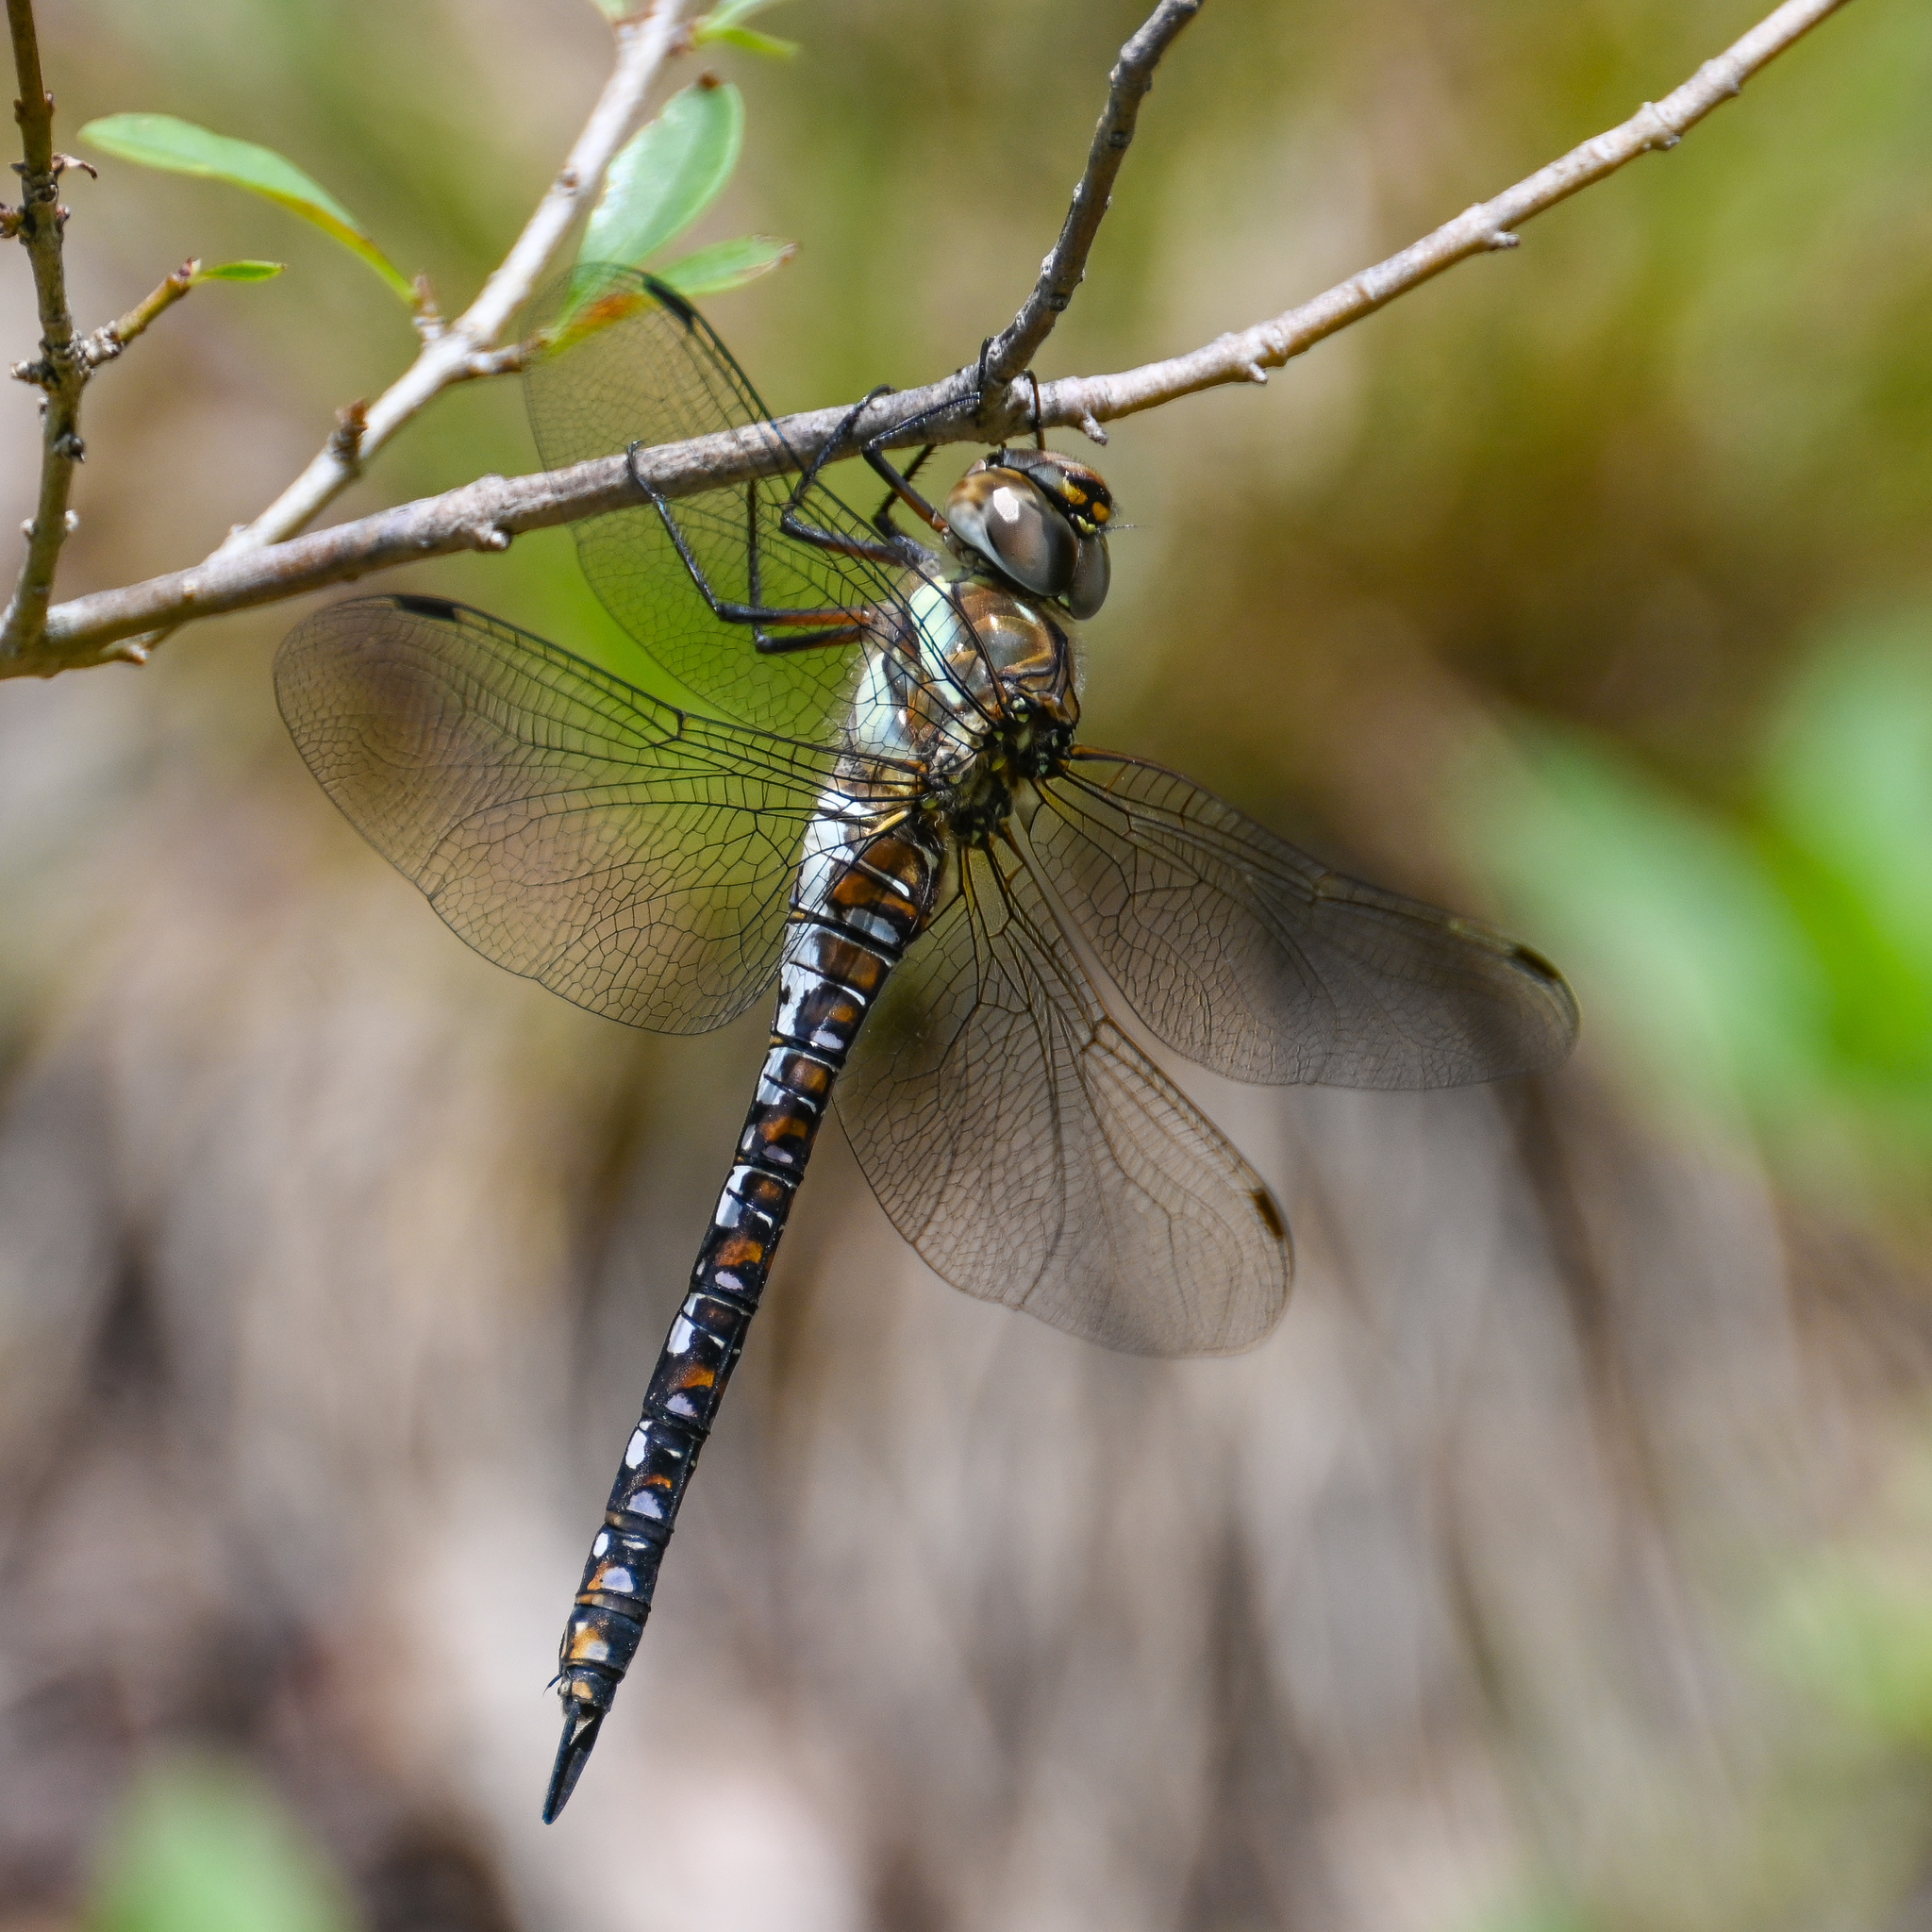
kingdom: Animalia
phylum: Arthropoda
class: Insecta
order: Odonata
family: Aeshnidae
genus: Aeshna
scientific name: Aeshna mixta
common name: Migrant hawker
